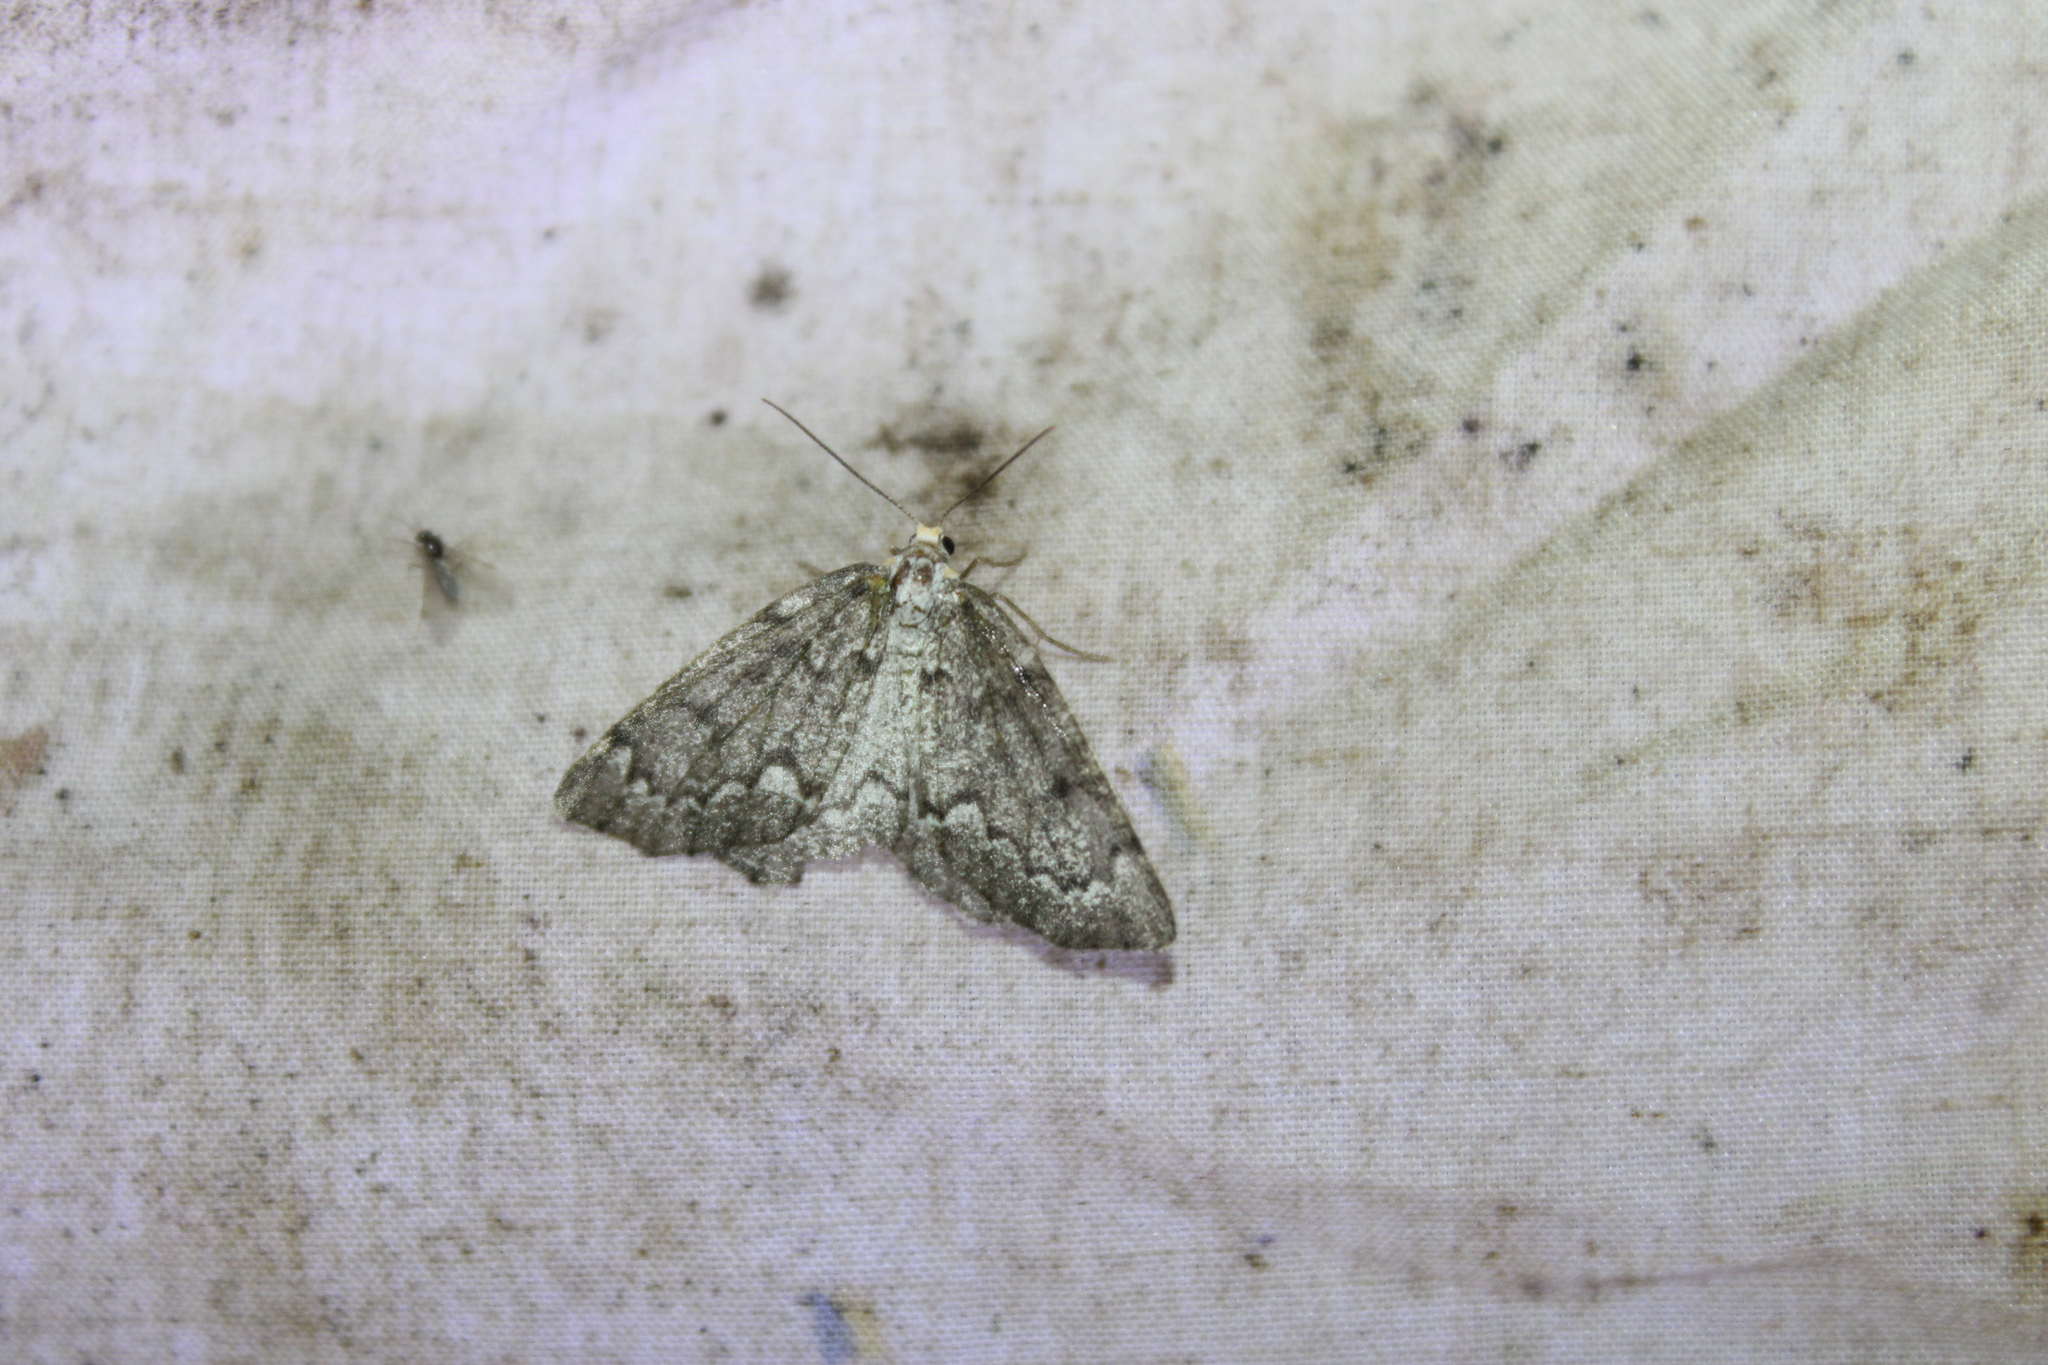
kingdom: Animalia
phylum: Arthropoda
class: Insecta
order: Lepidoptera
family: Geometridae
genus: Nepytia
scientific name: Nepytia canosaria
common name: False hemlock looper
